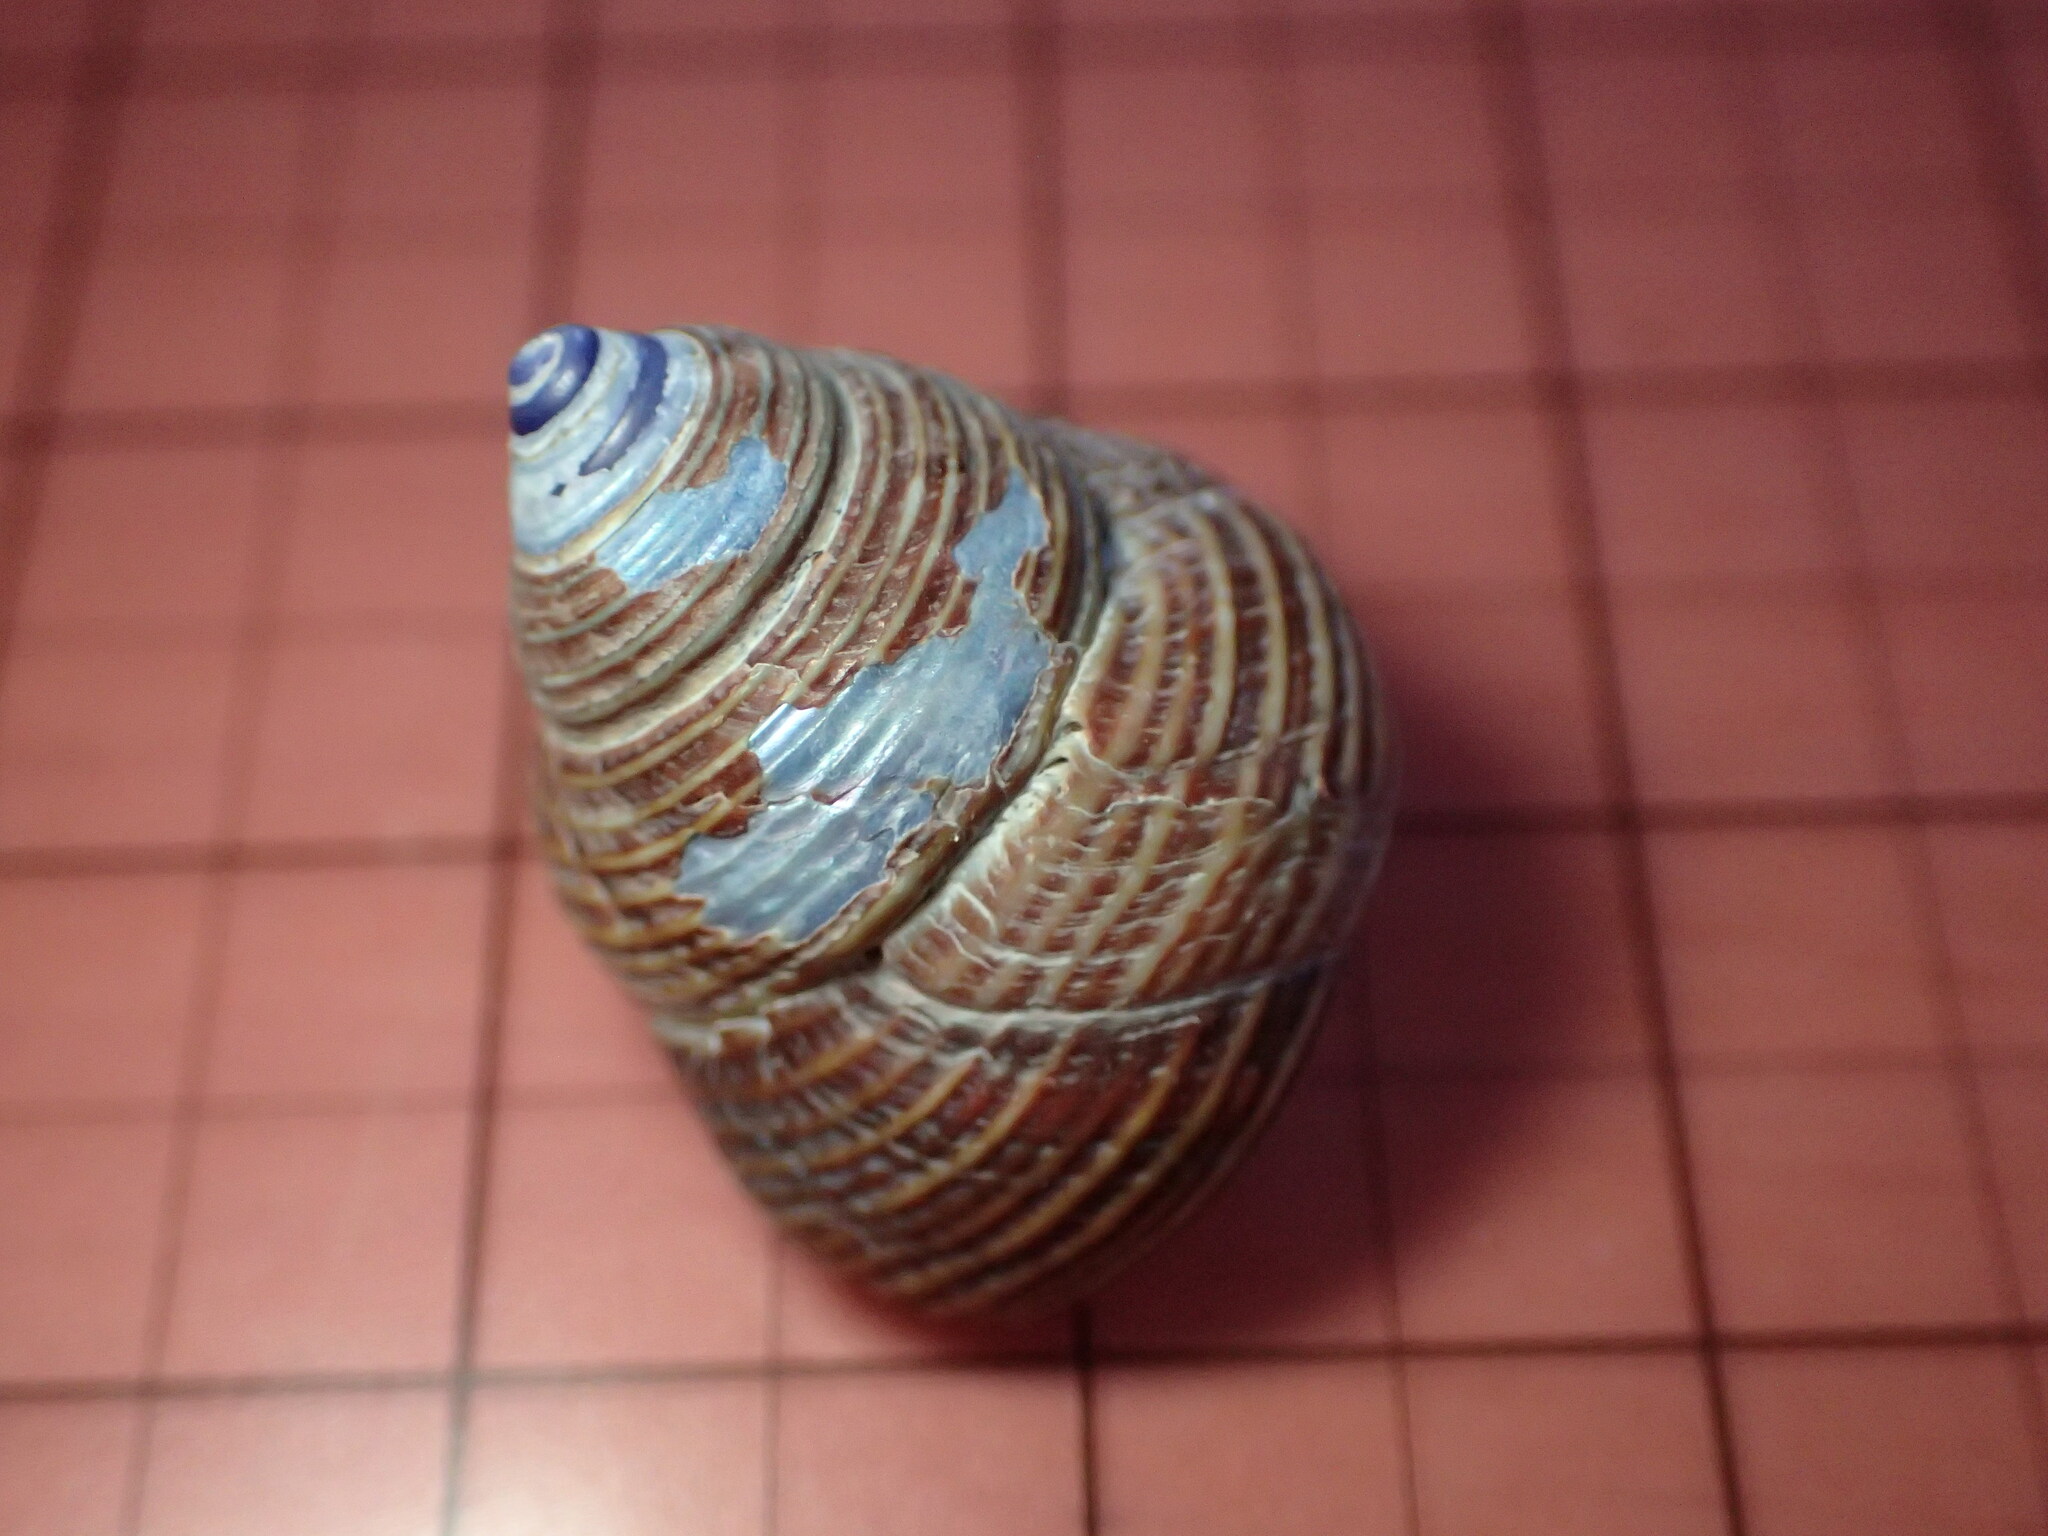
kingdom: Animalia
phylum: Mollusca
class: Gastropoda
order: Trochida
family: Calliostomatidae
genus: Calliostoma
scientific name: Calliostoma ligatum
